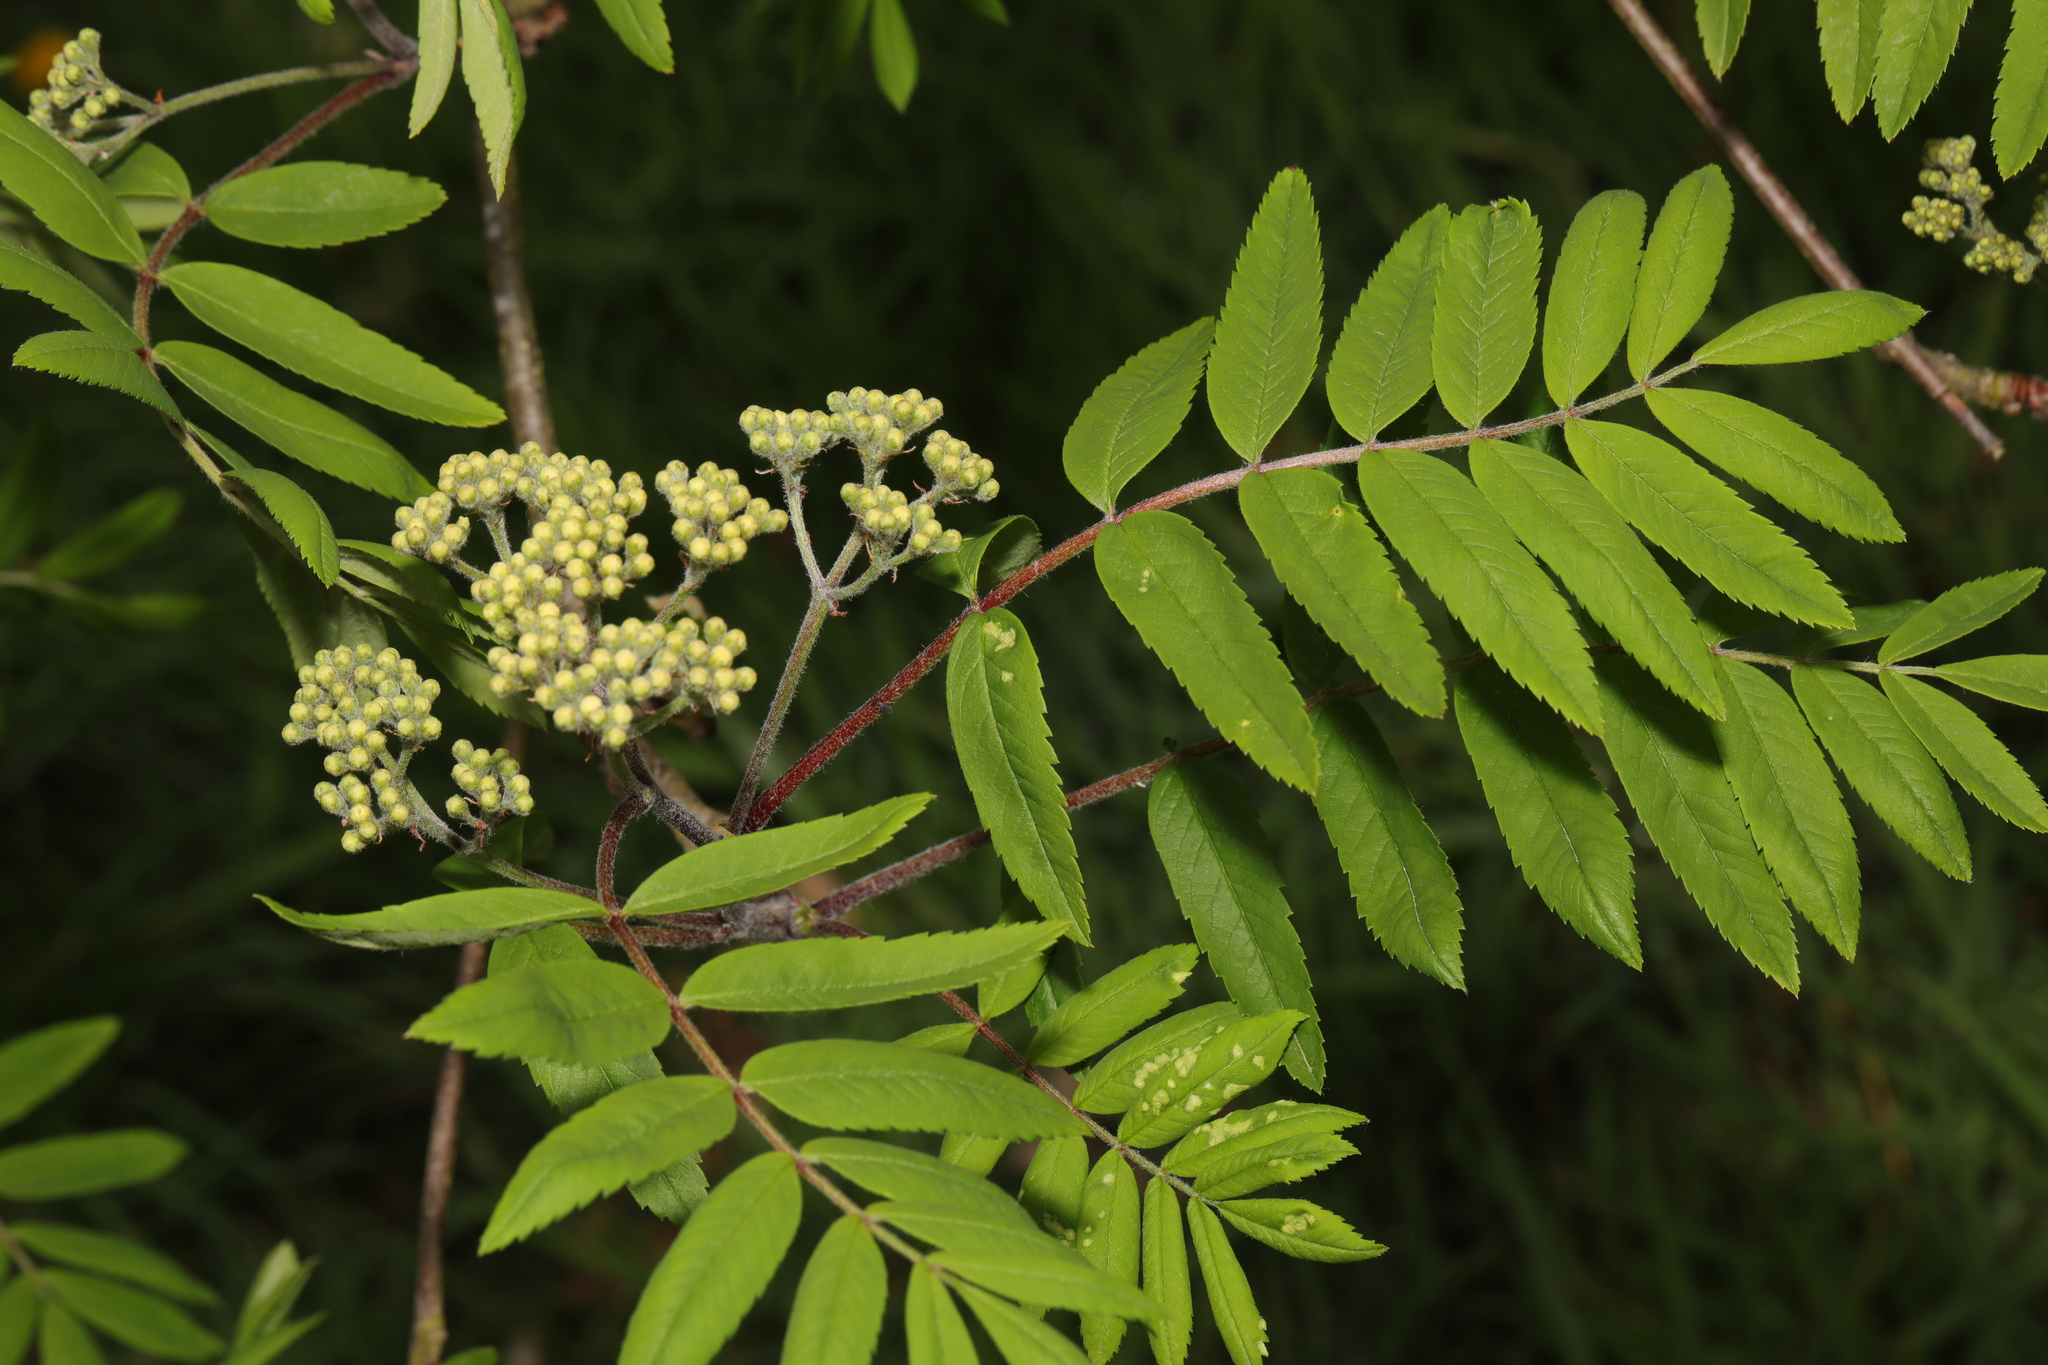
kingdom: Plantae
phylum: Tracheophyta
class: Magnoliopsida
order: Rosales
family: Rosaceae
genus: Sorbus
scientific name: Sorbus aucuparia
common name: Rowan
